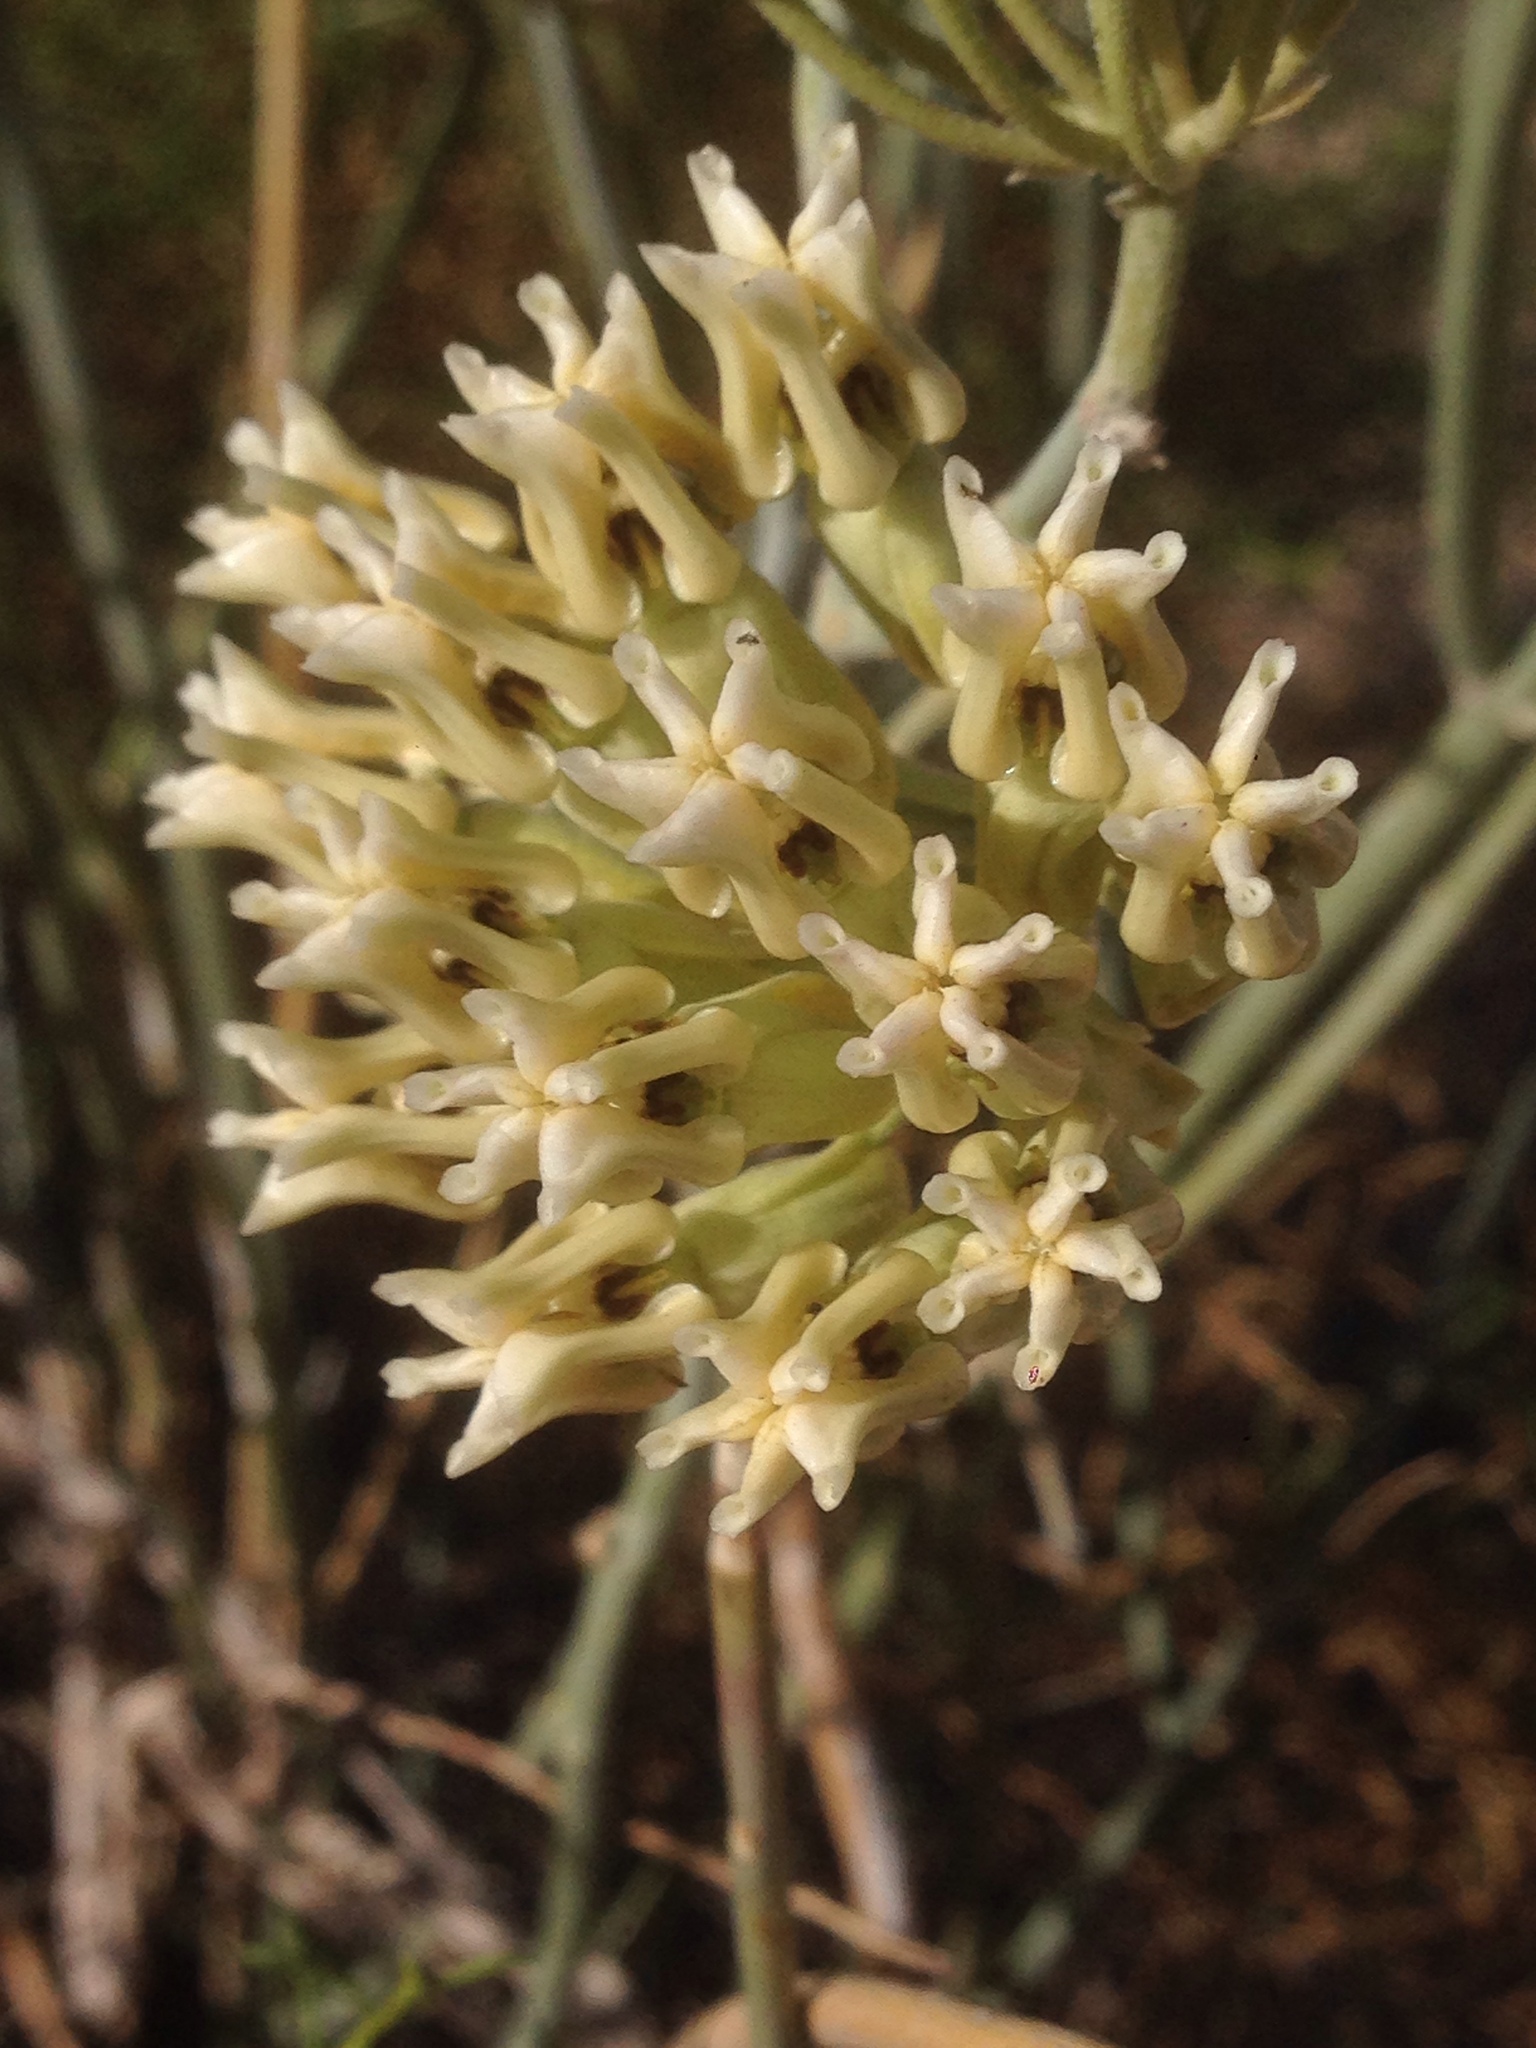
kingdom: Plantae
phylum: Tracheophyta
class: Magnoliopsida
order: Gentianales
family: Apocynaceae
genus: Asclepias
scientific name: Asclepias subulata
